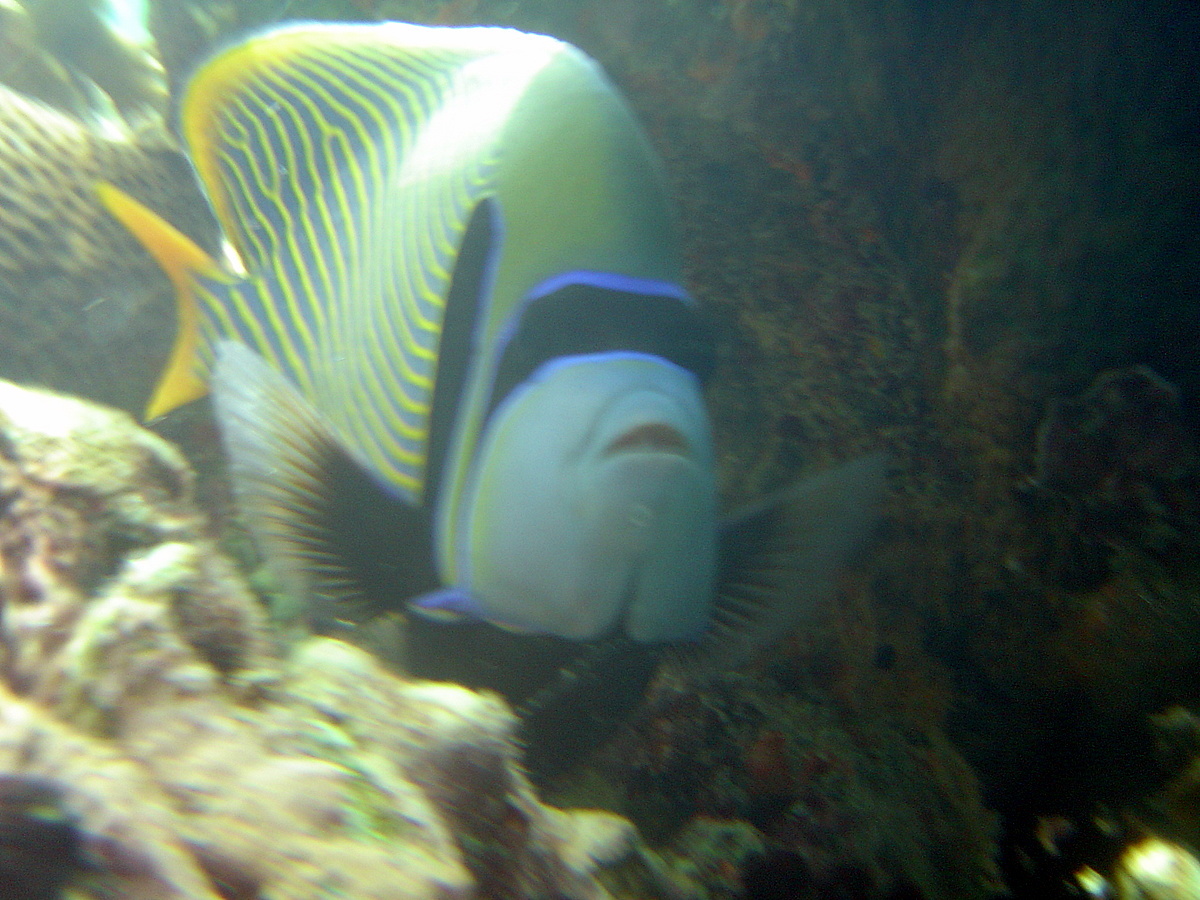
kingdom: Animalia
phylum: Chordata
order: Perciformes
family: Pomacanthidae
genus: Pomacanthus
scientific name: Pomacanthus imperator
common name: Emperor angelfish
